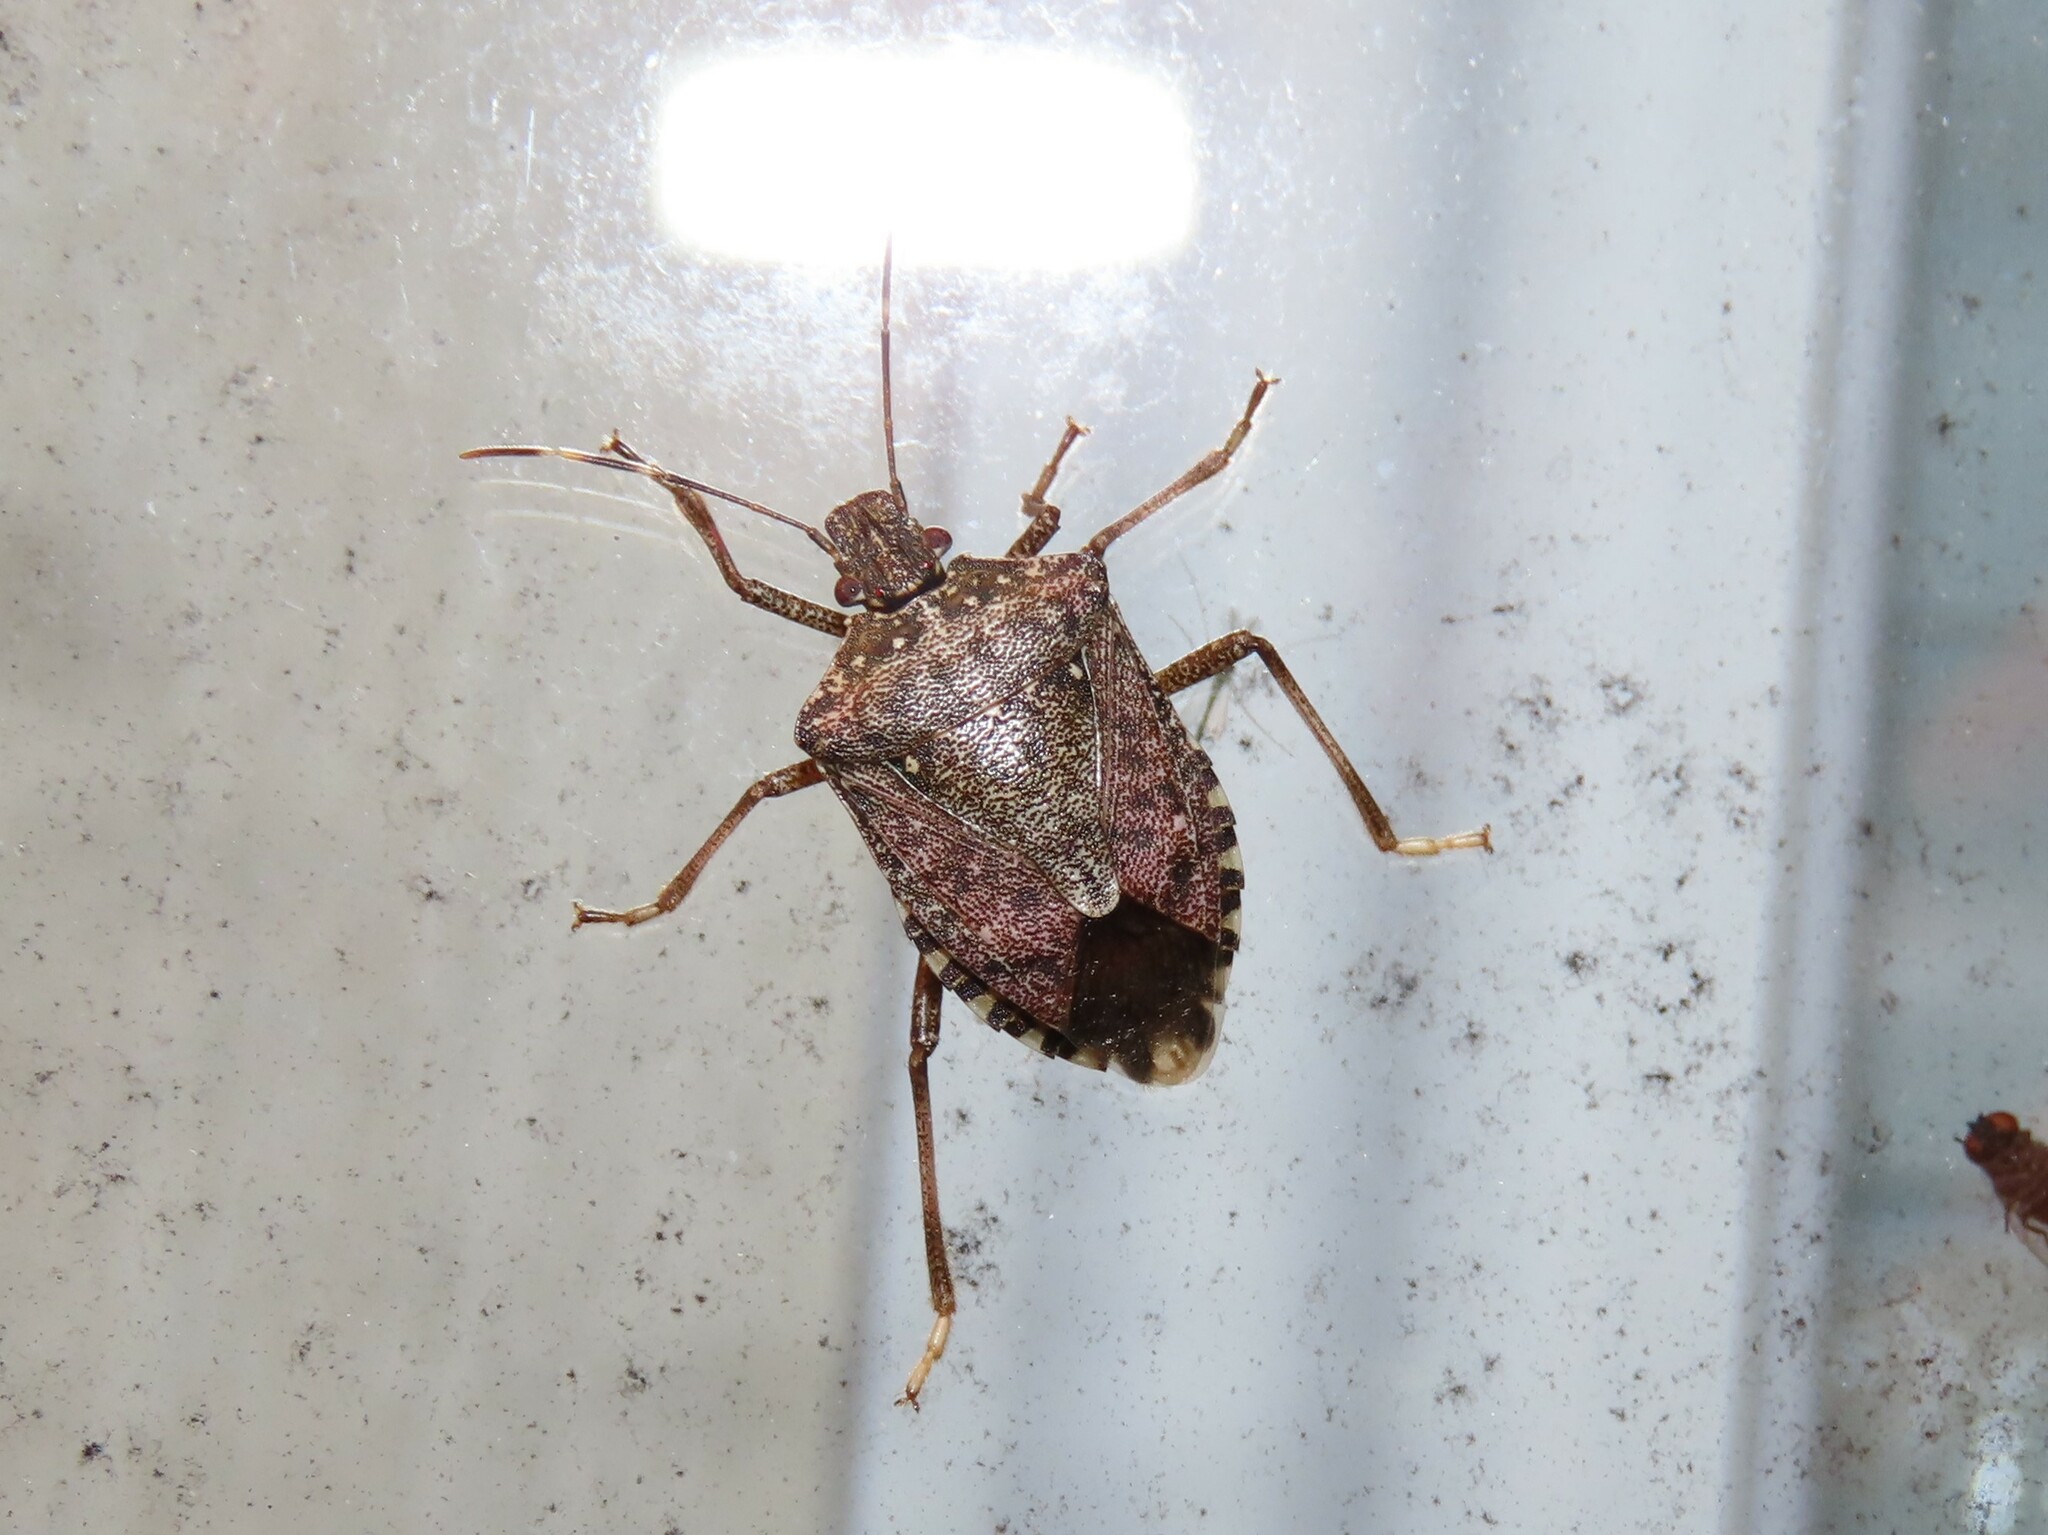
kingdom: Animalia
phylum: Arthropoda
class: Insecta
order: Hemiptera
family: Pentatomidae
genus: Halyomorpha
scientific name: Halyomorpha halys
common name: Brown marmorated stink bug
